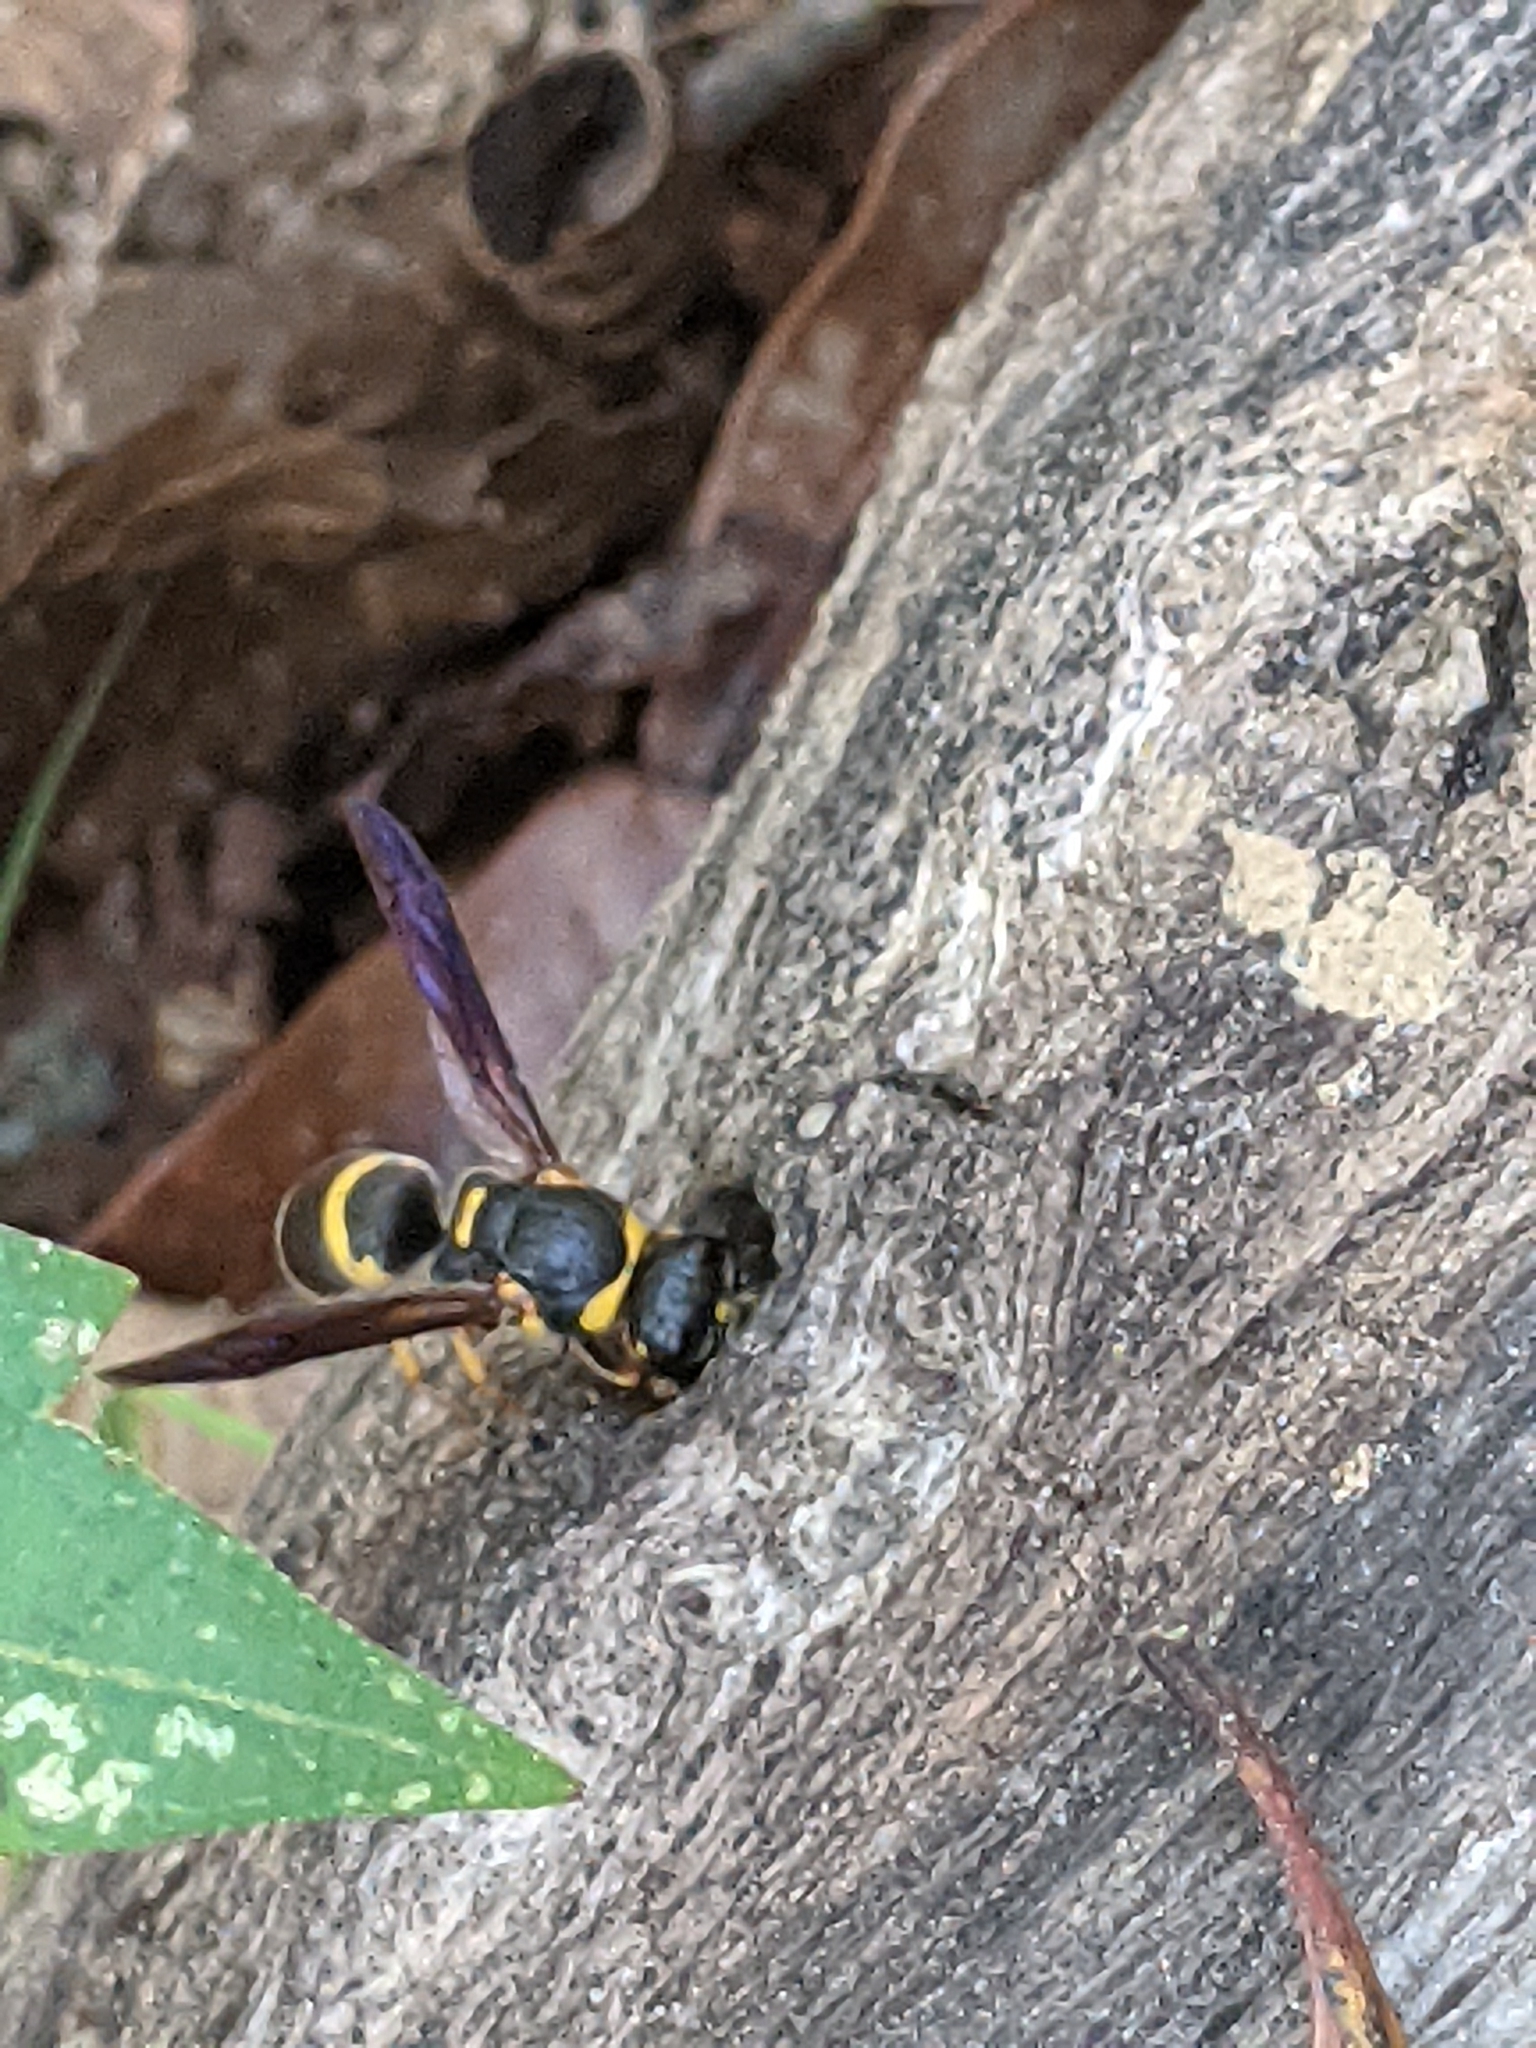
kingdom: Animalia
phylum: Arthropoda
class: Insecta
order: Hymenoptera
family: Eumenidae
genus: Euodynerus
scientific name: Euodynerus foraminatus
